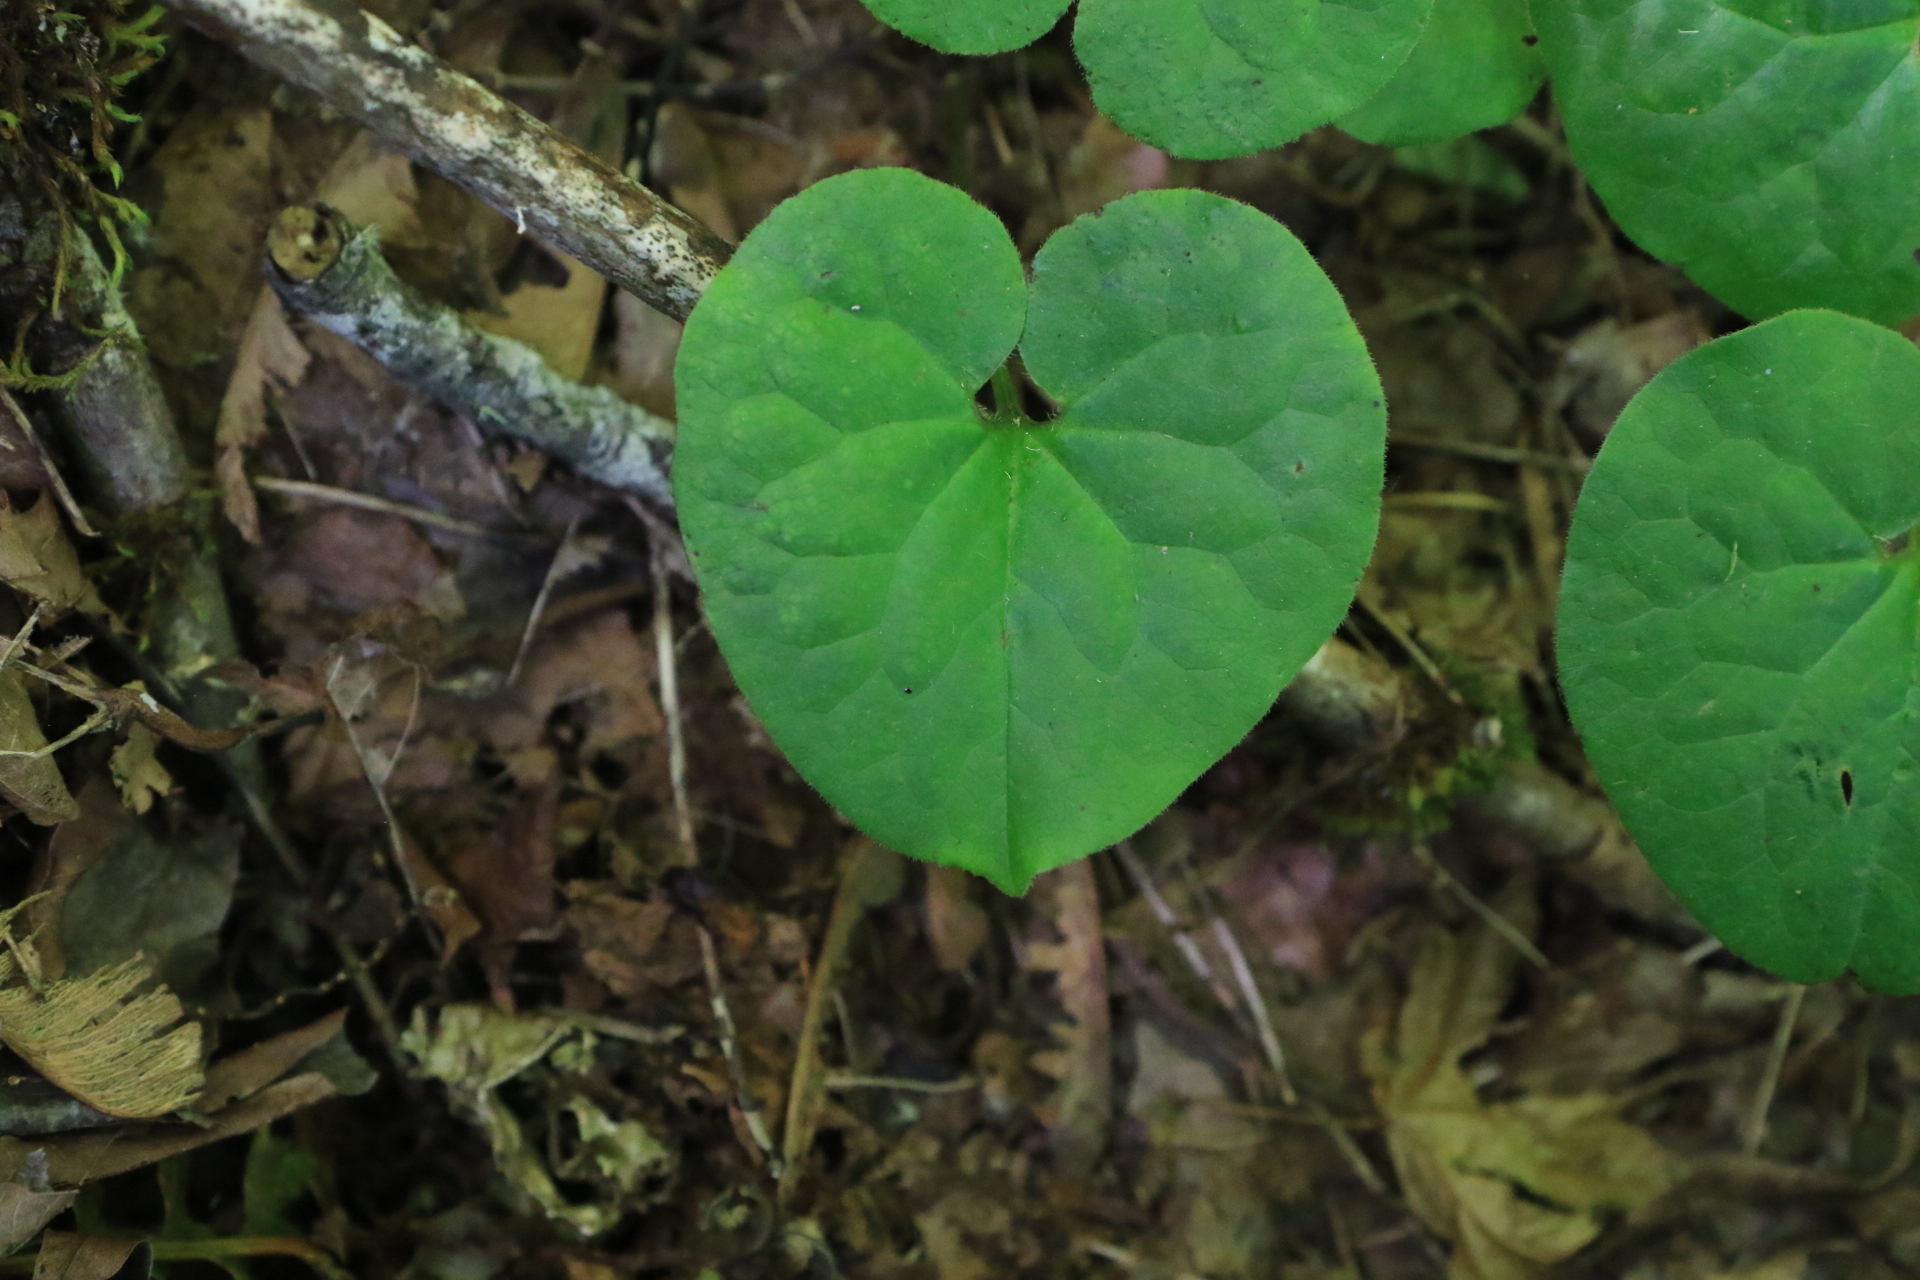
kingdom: Plantae
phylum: Tracheophyta
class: Magnoliopsida
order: Piperales
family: Aristolochiaceae
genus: Asarum
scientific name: Asarum caudatum
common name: Wild ginger
